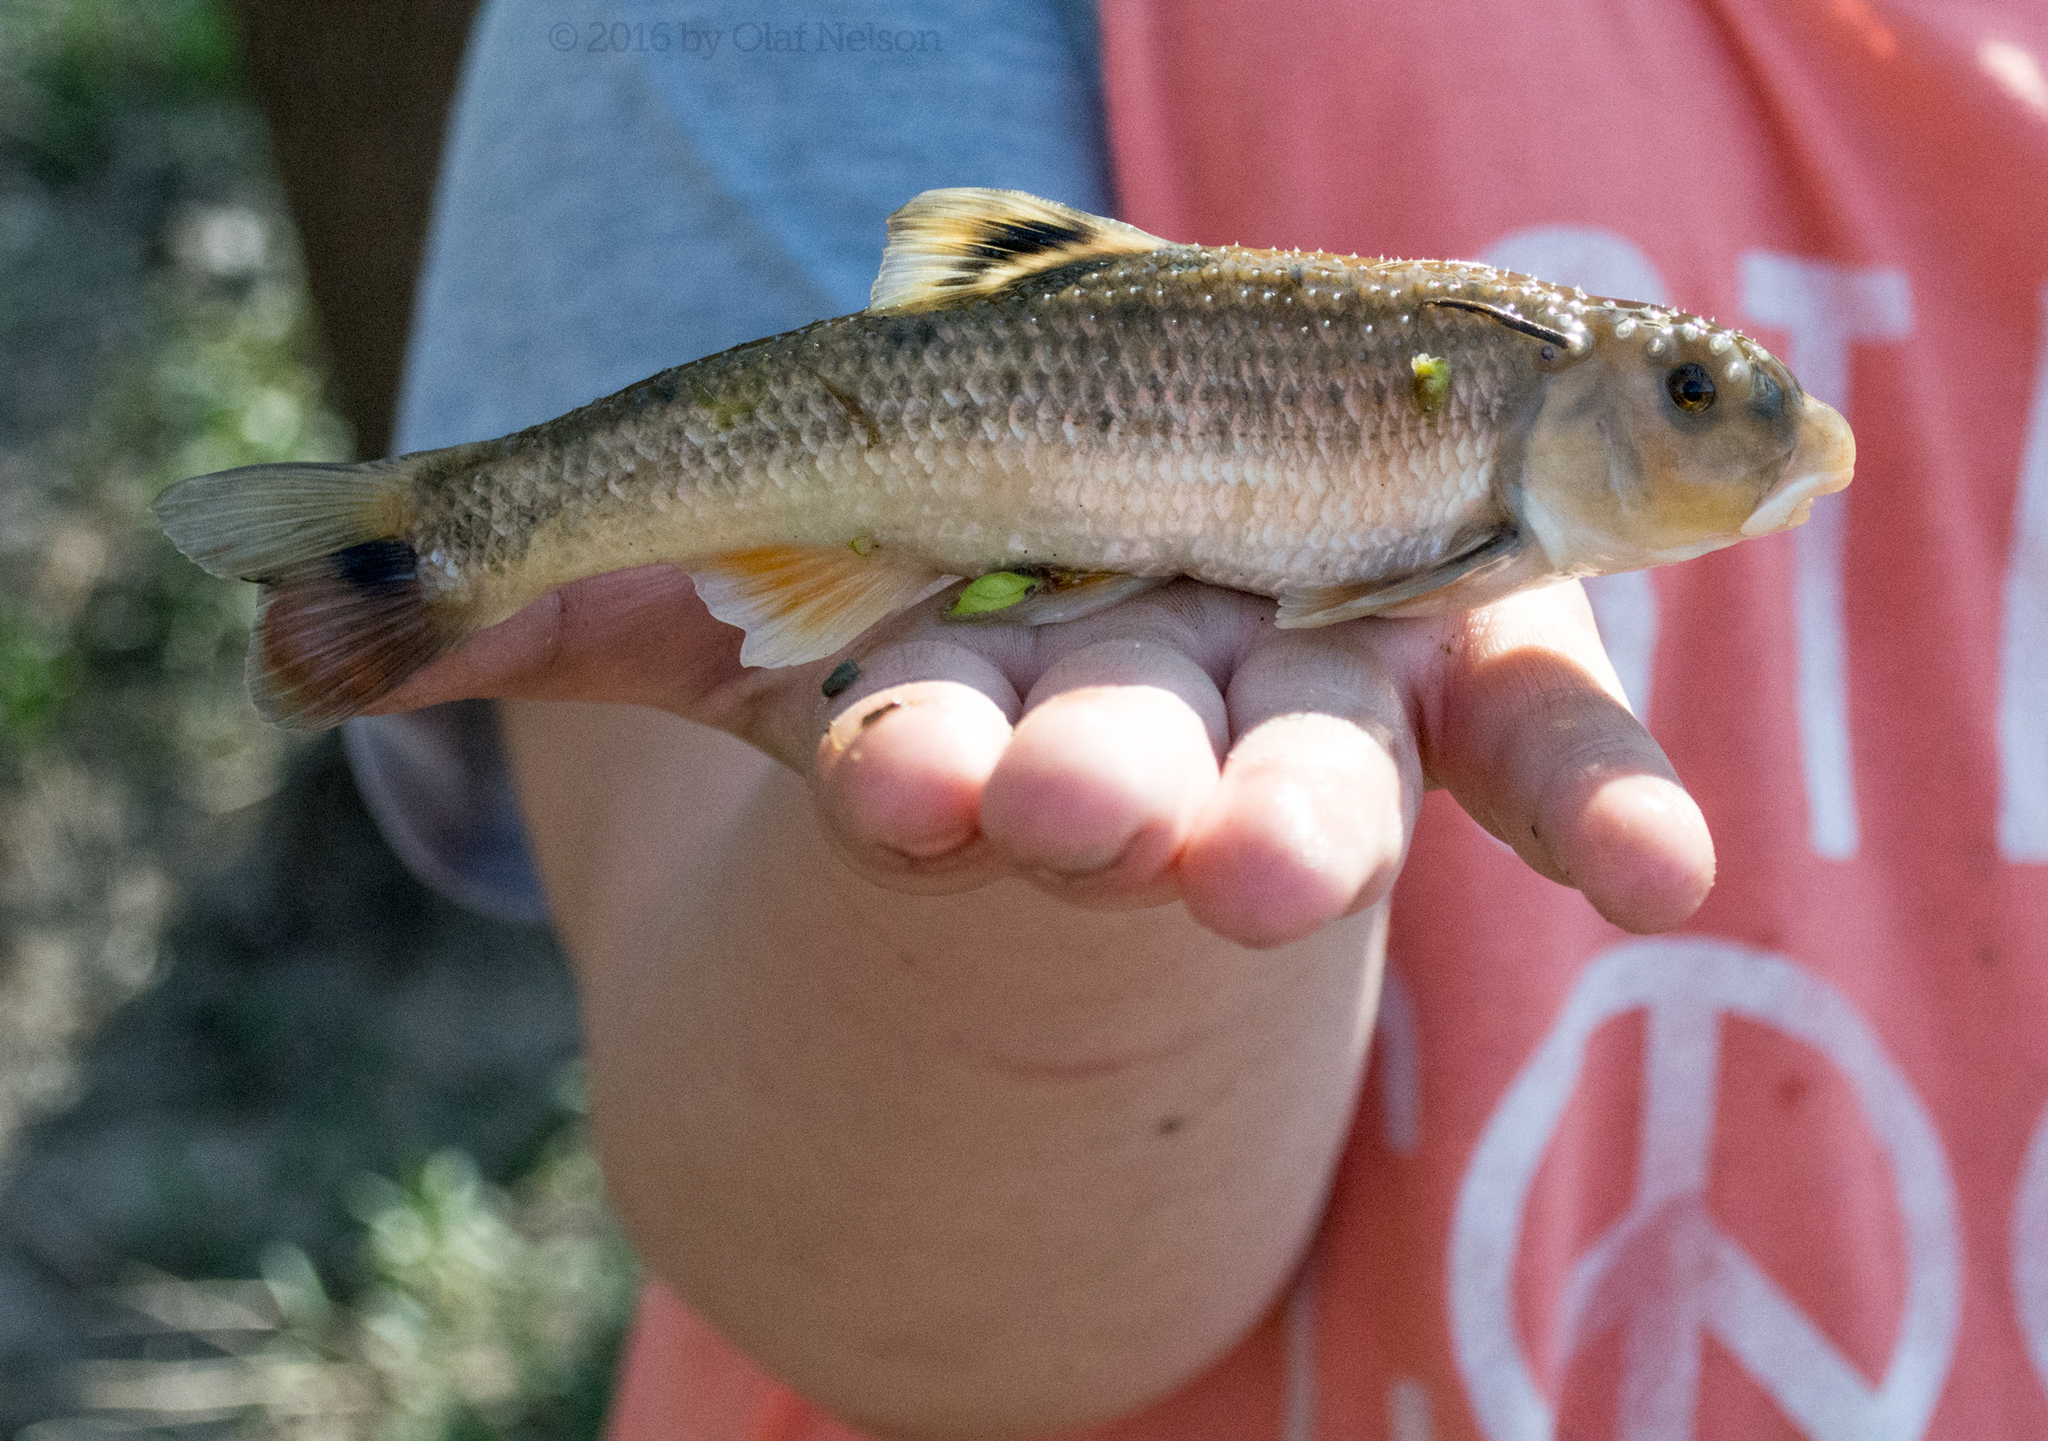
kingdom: Animalia
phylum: Chordata
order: Cypriniformes
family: Cyprinidae
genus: Campostoma
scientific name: Campostoma
